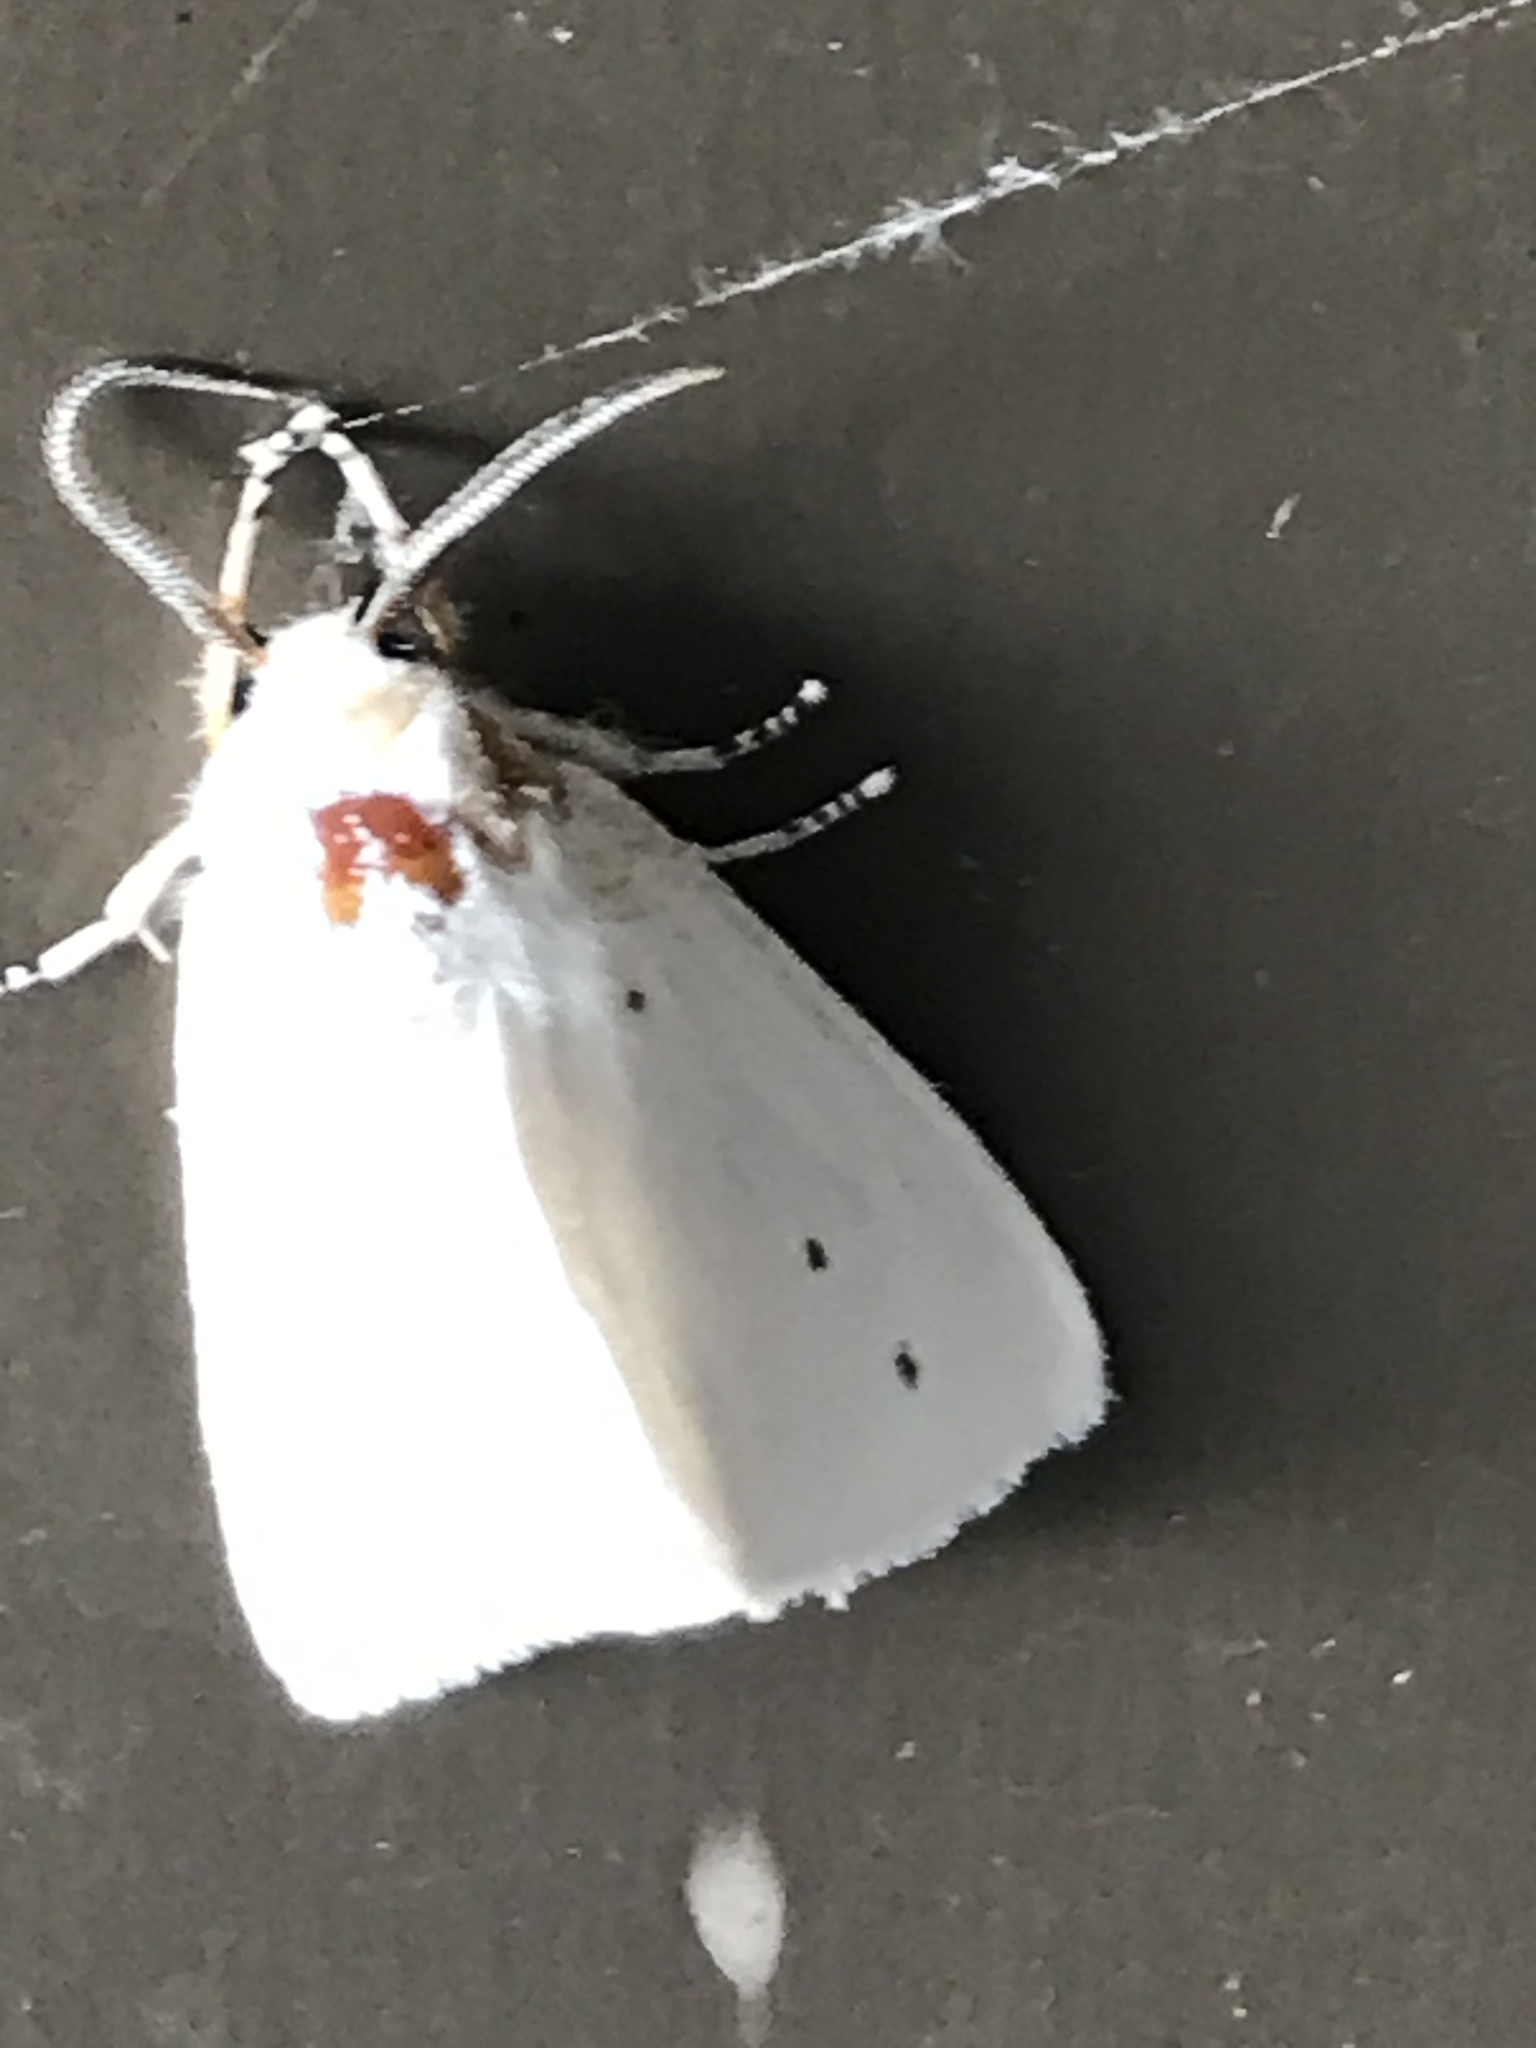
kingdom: Animalia
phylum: Arthropoda
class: Insecta
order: Lepidoptera
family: Erebidae
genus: Spilosoma
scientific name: Spilosoma virginica
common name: Virginia tiger moth
